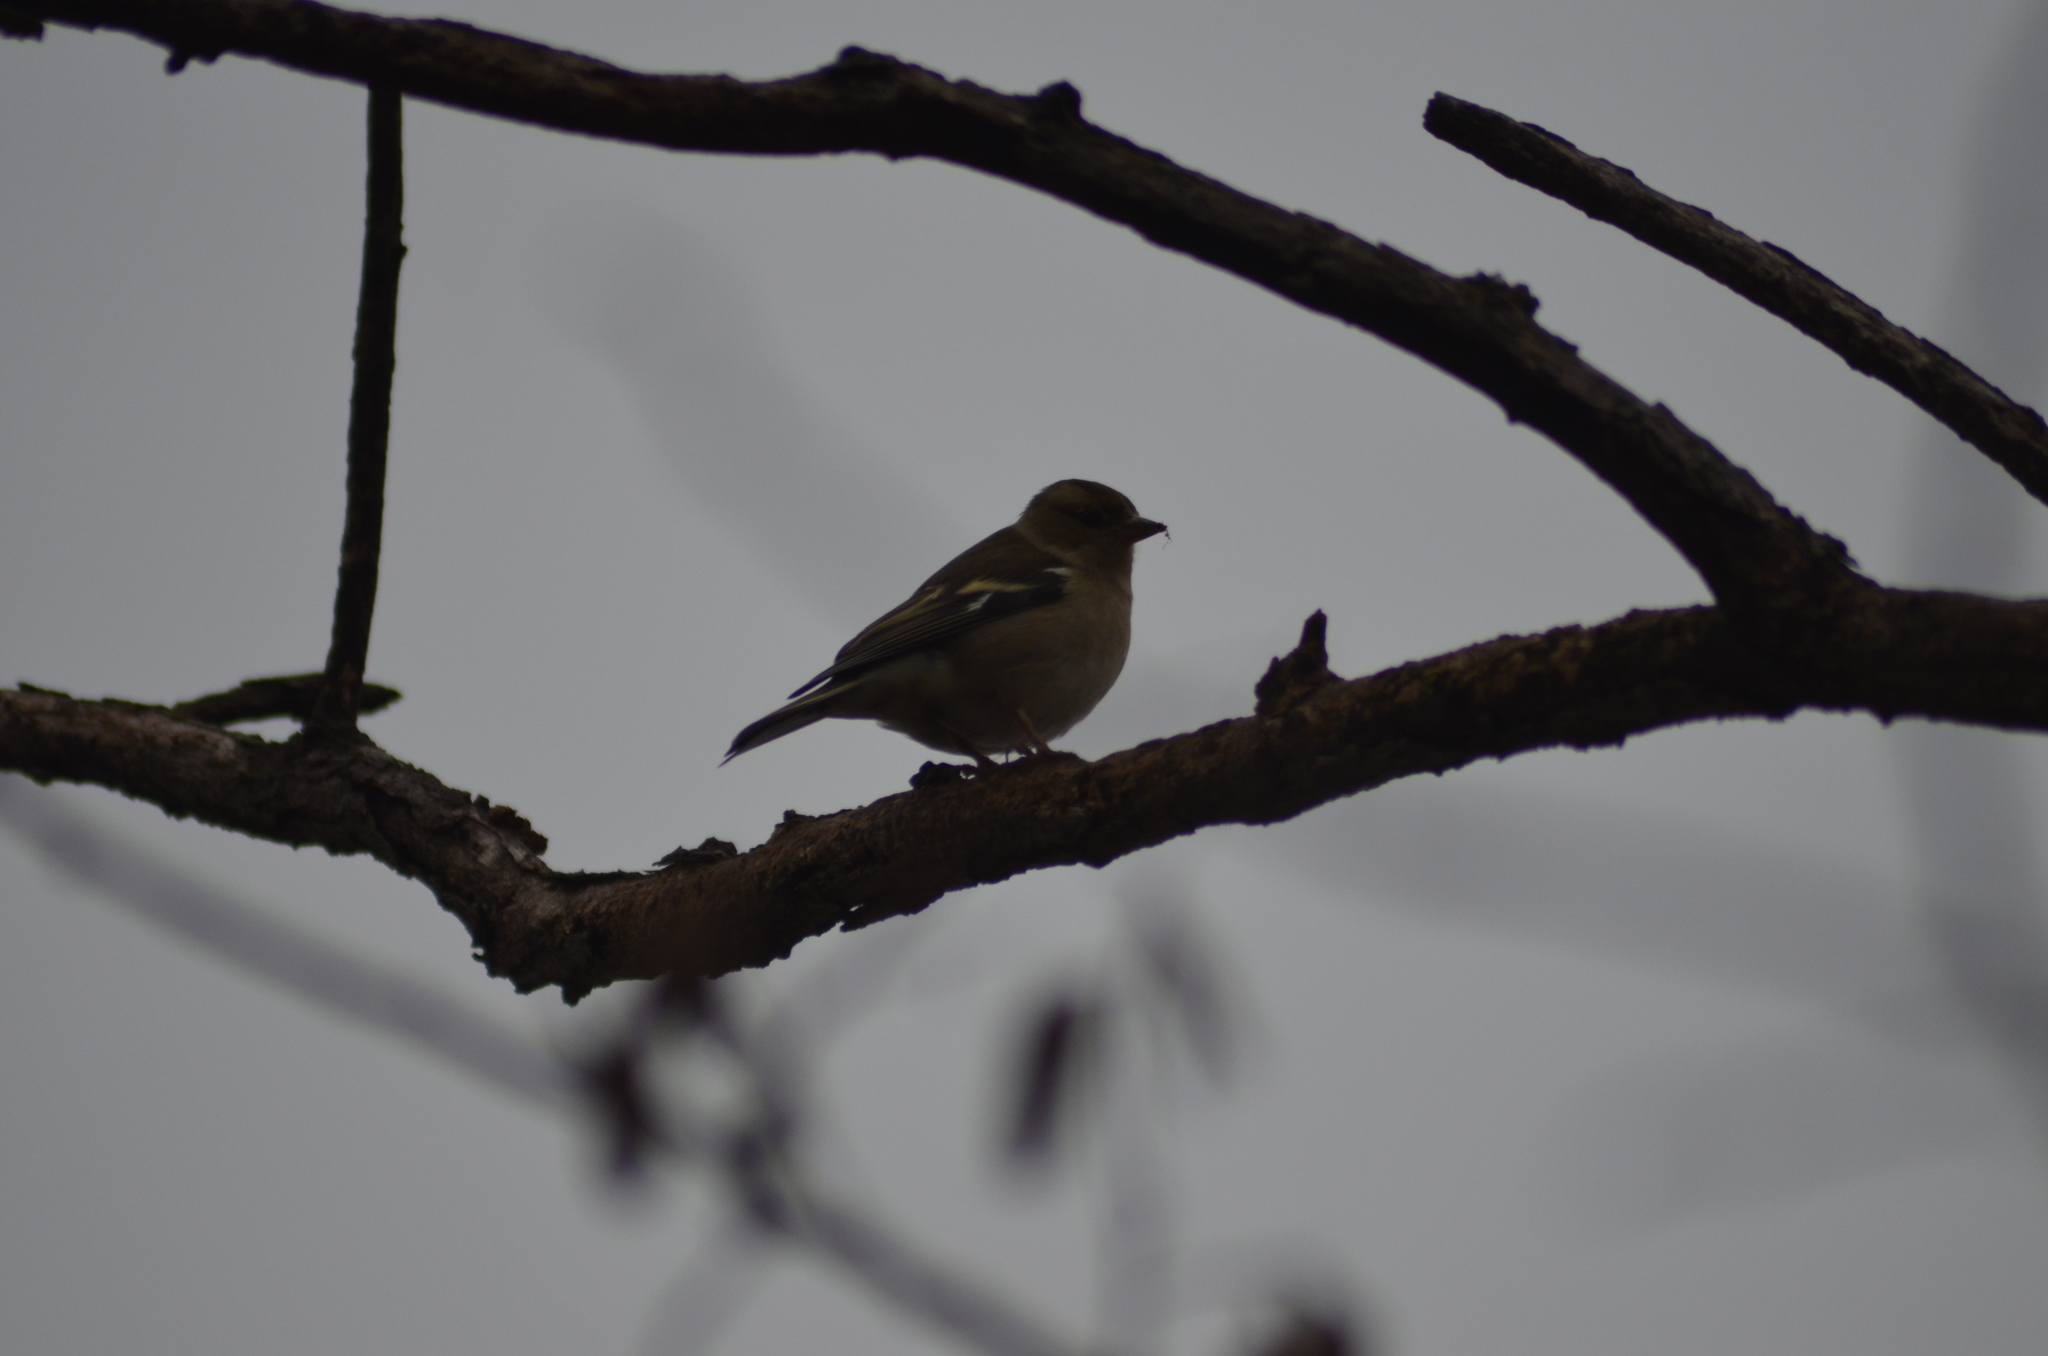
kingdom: Animalia
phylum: Chordata
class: Aves
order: Passeriformes
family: Fringillidae
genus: Fringilla
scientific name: Fringilla coelebs
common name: Common chaffinch
